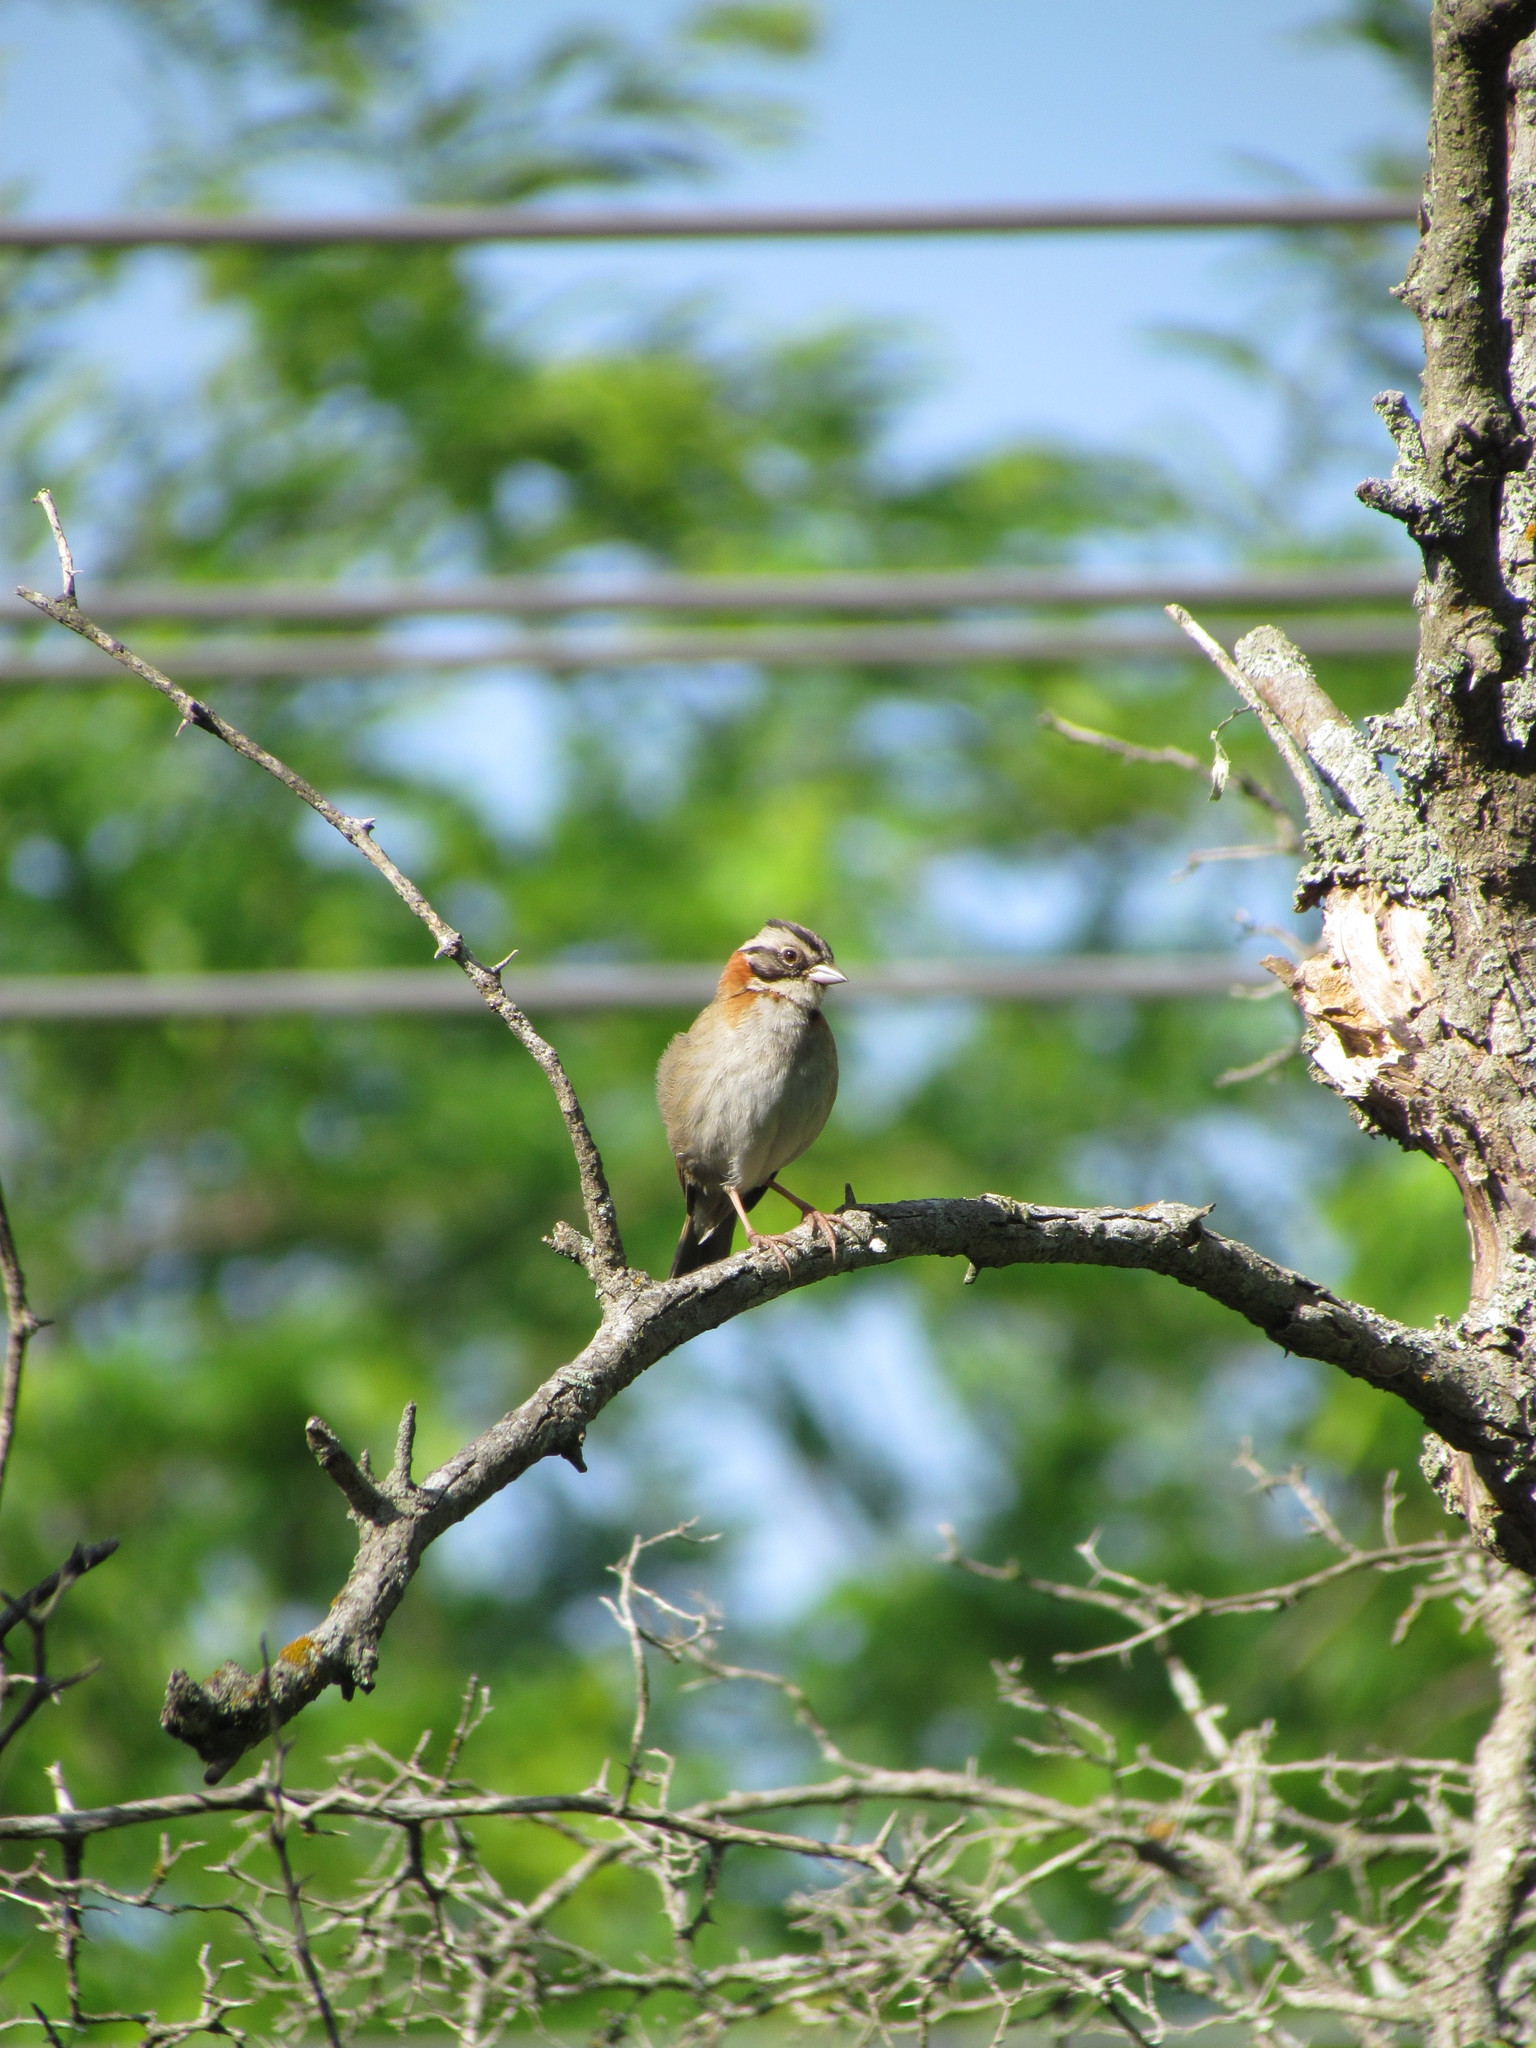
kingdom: Animalia
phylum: Chordata
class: Aves
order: Passeriformes
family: Passerellidae
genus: Zonotrichia
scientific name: Zonotrichia capensis
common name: Rufous-collared sparrow
